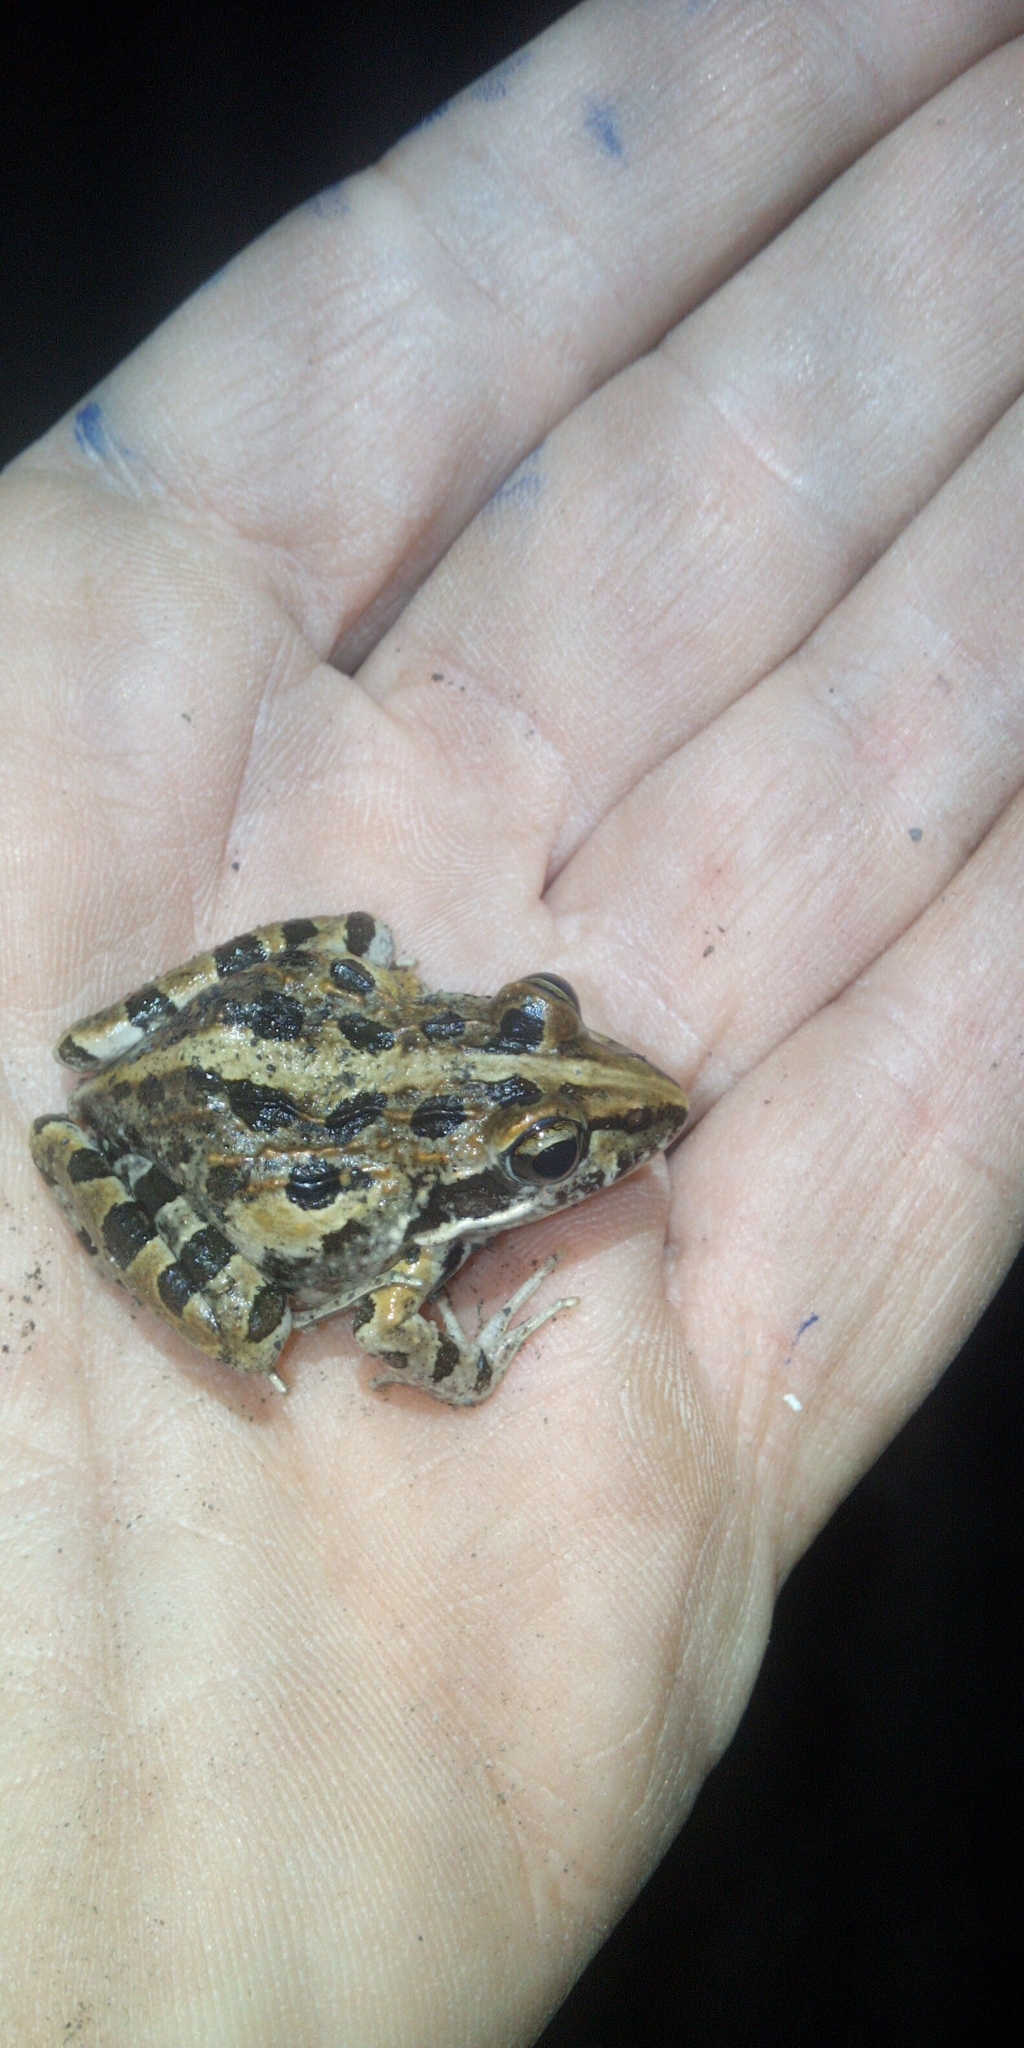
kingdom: Animalia
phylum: Chordata
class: Amphibia
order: Anura
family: Pyxicephalidae
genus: Strongylopus
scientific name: Strongylopus grayii
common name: Gray's stream frog
